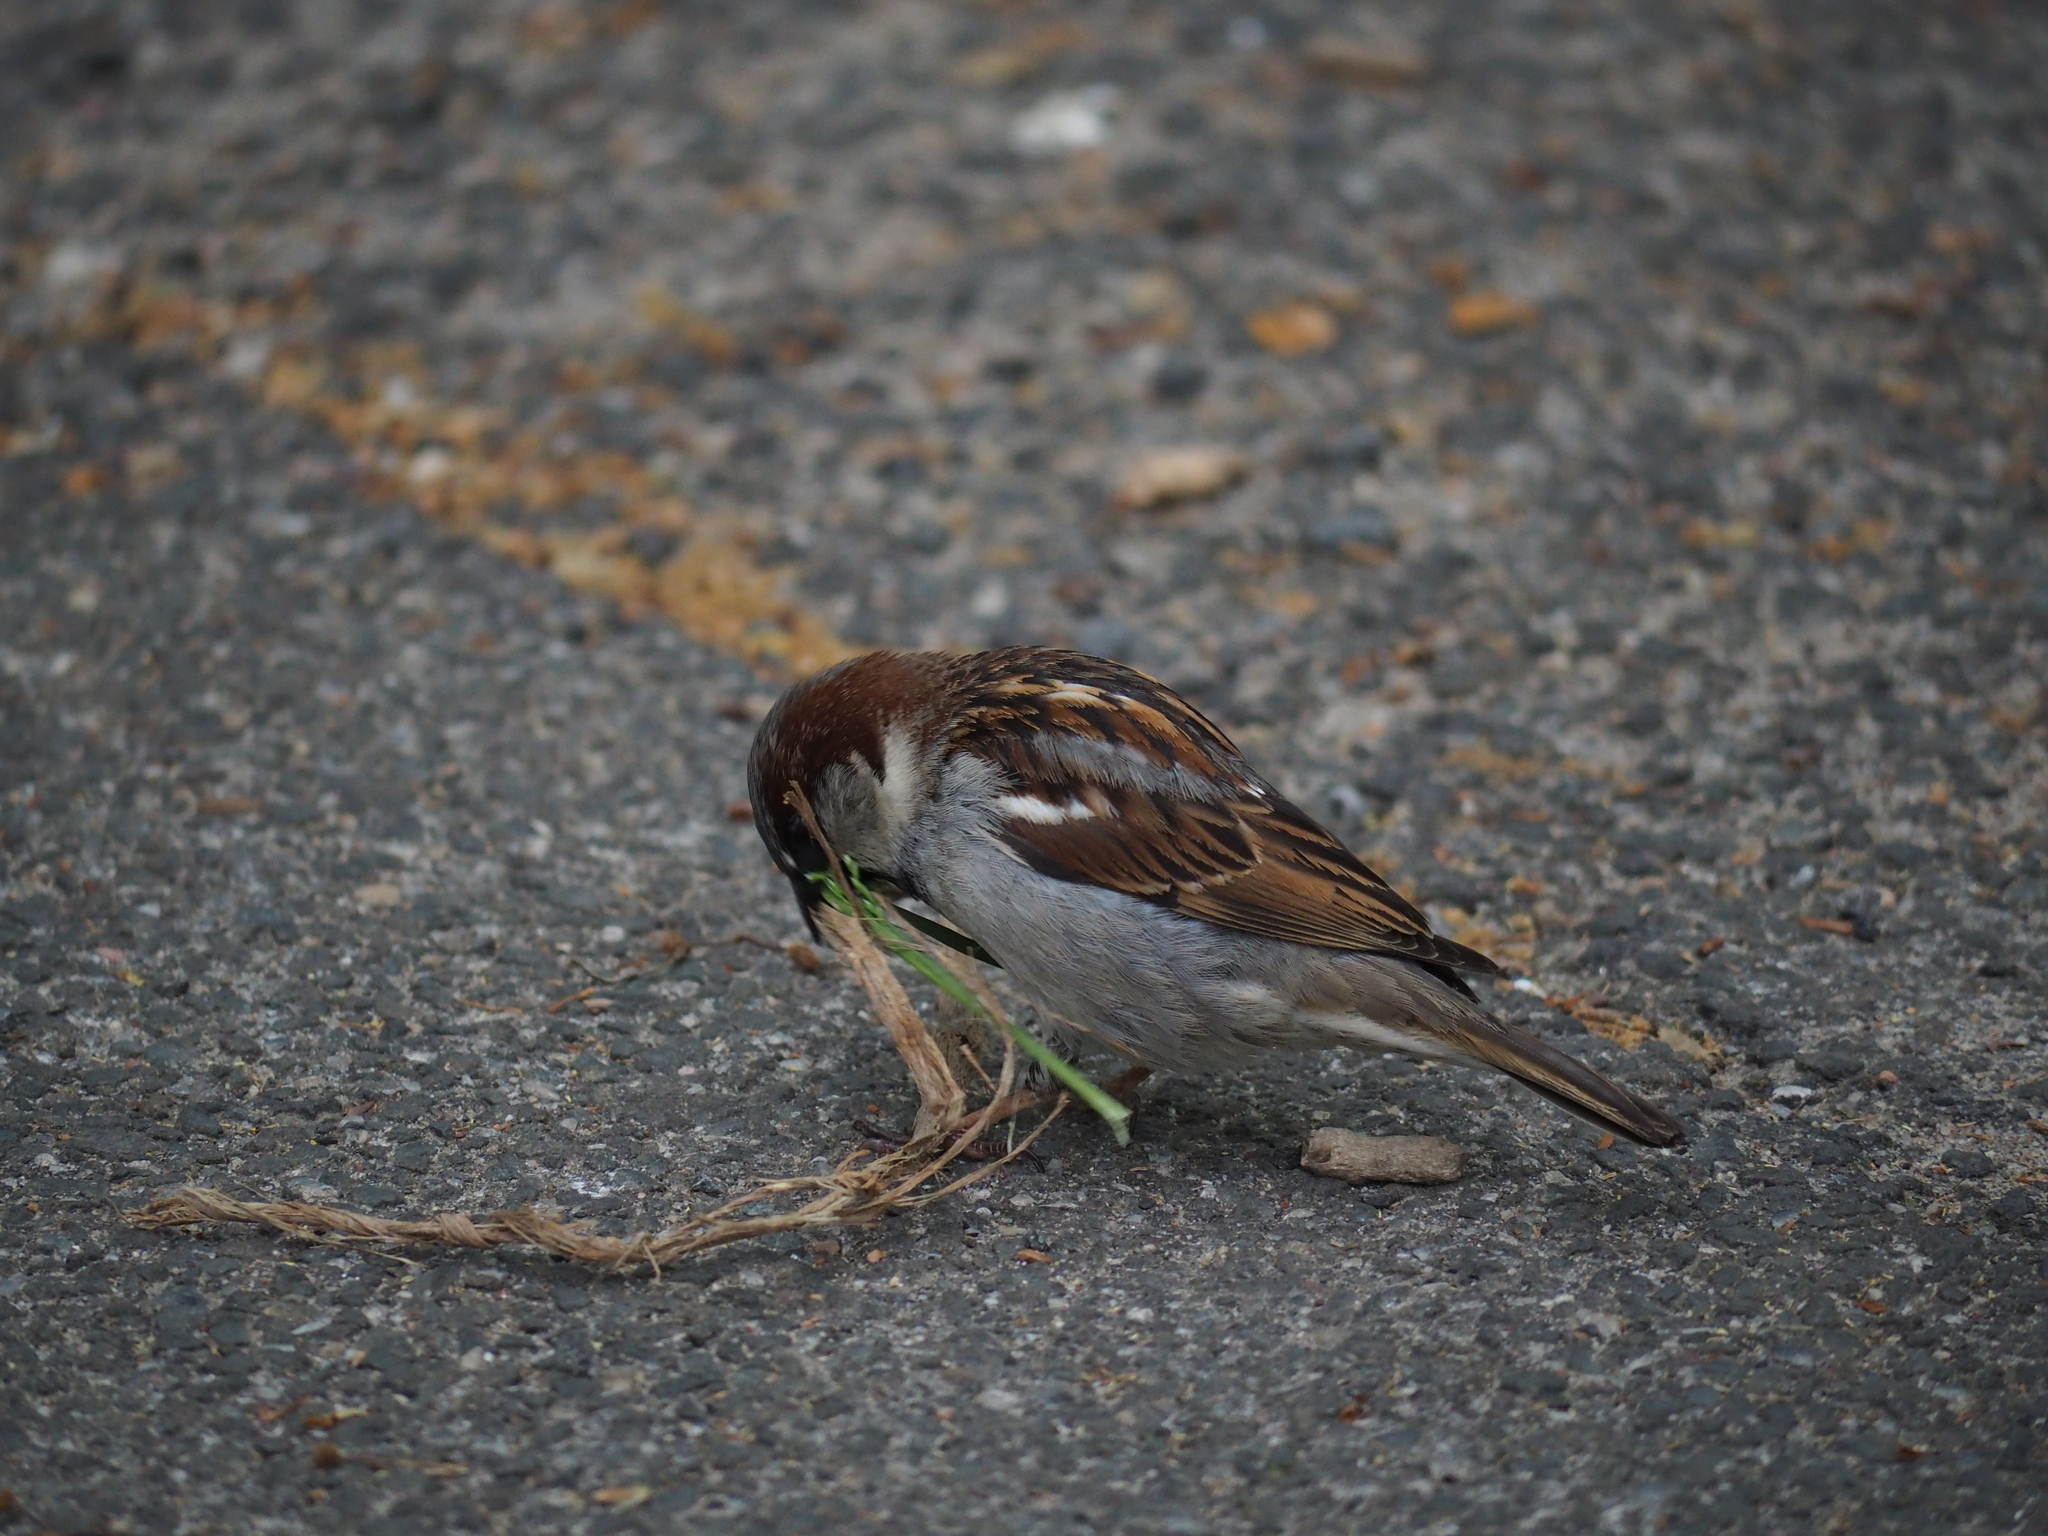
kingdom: Animalia
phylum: Chordata
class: Aves
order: Passeriformes
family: Passeridae
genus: Passer
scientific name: Passer domesticus
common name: House sparrow
